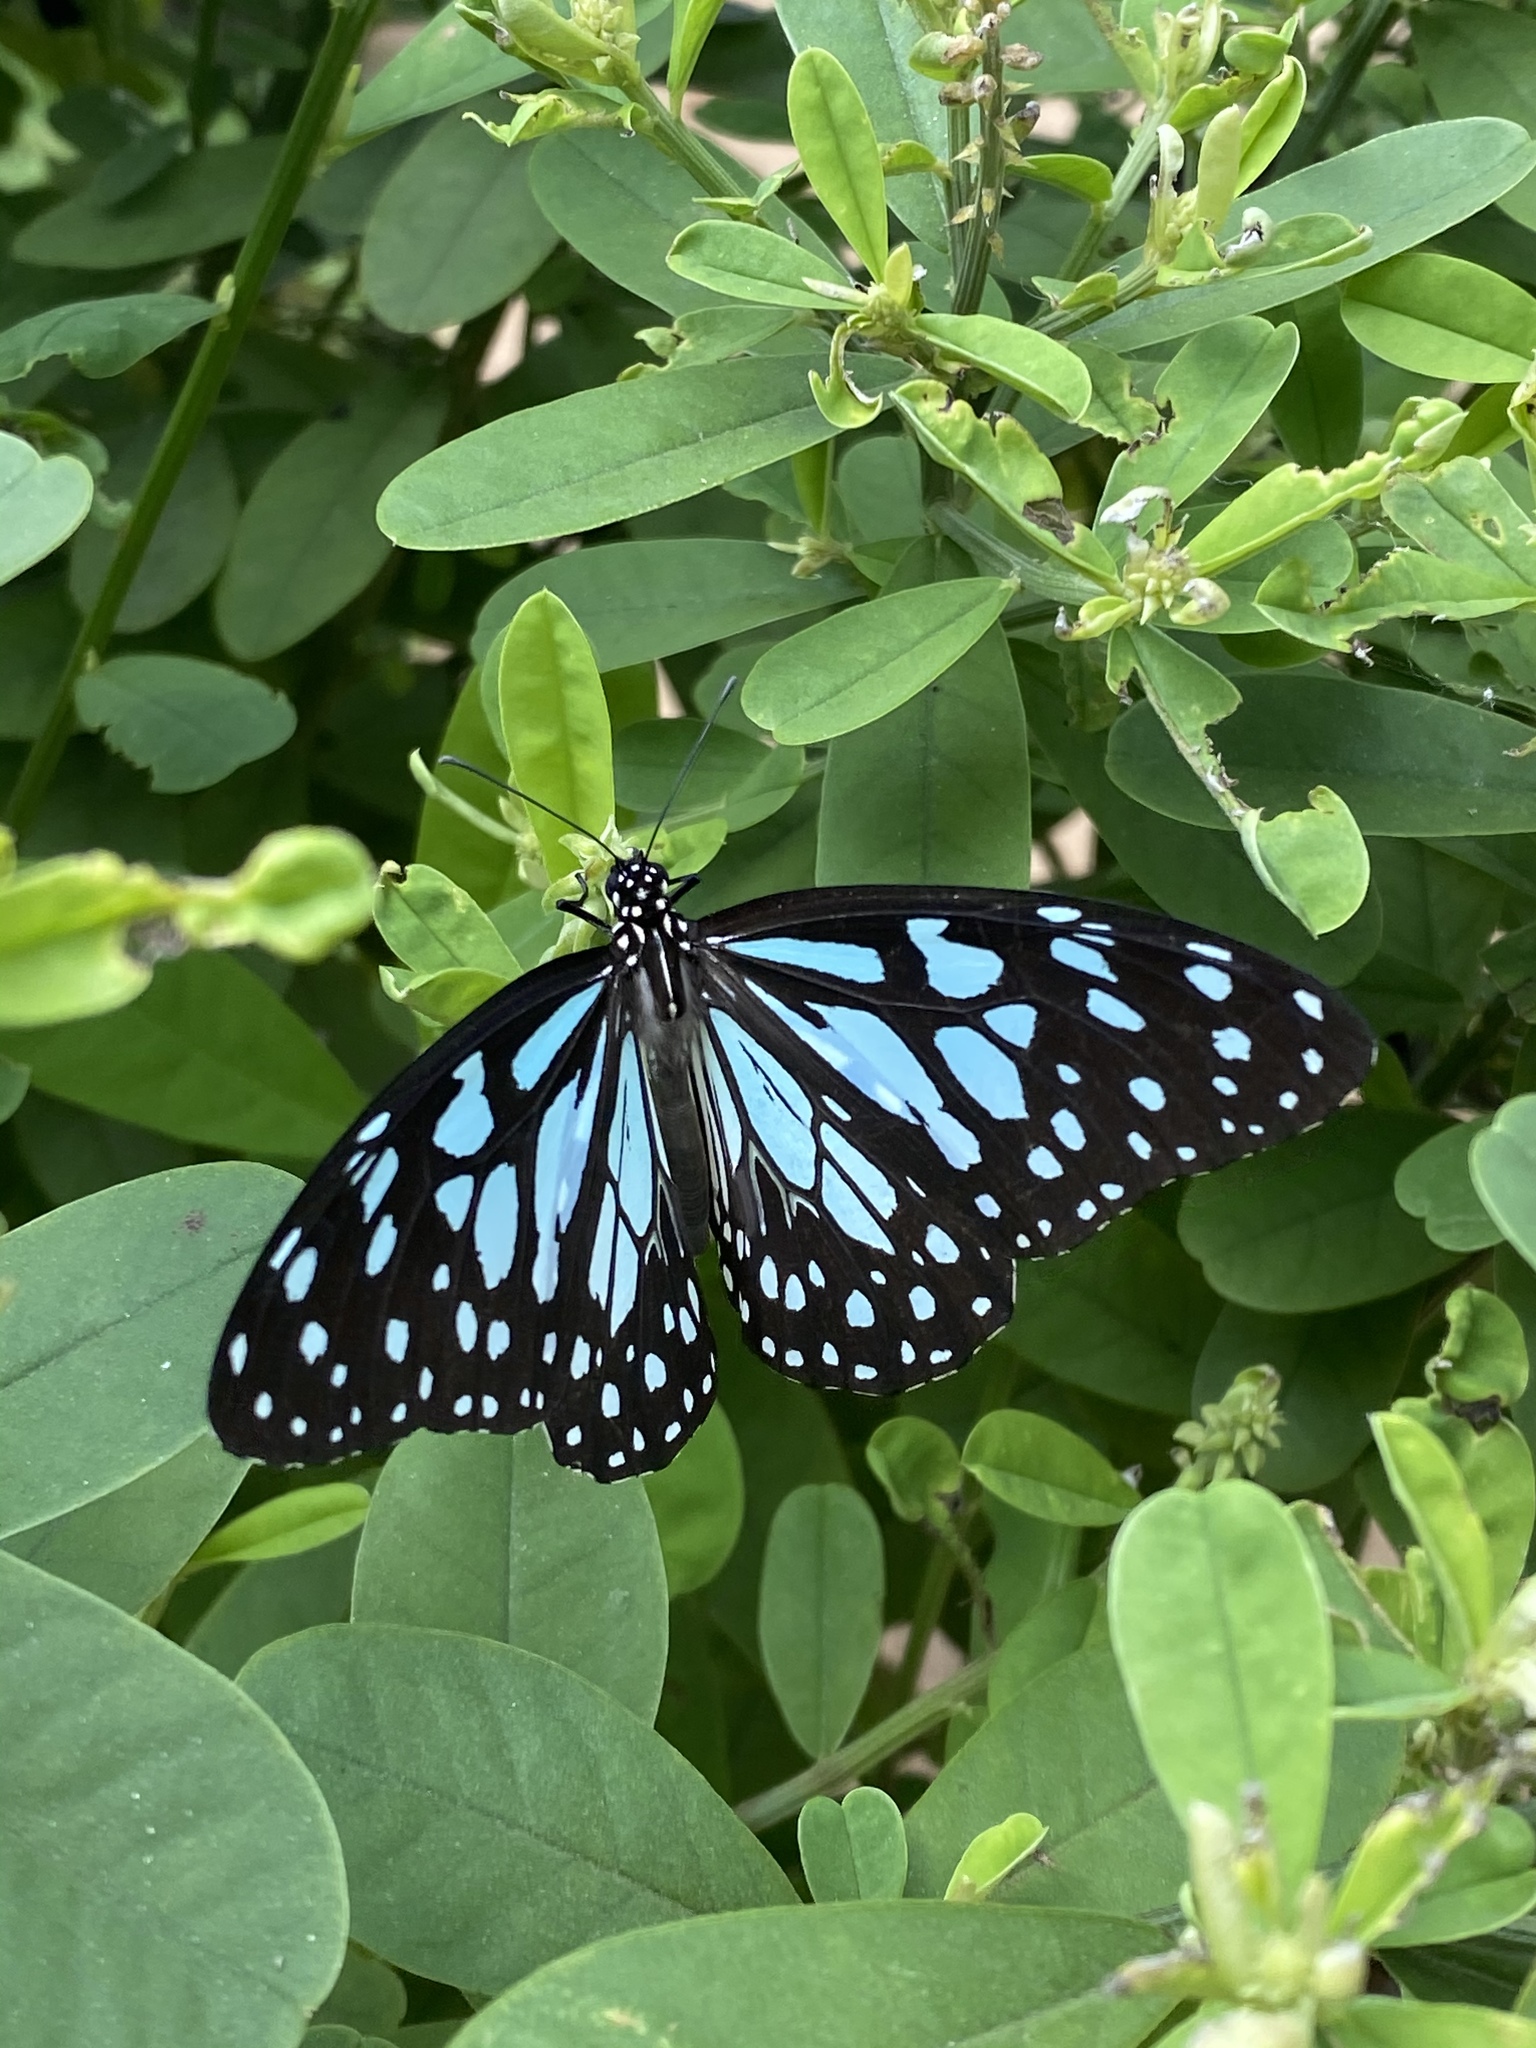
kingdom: Animalia
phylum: Arthropoda
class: Insecta
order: Lepidoptera
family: Nymphalidae
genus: Tirumala
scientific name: Tirumala limniace
